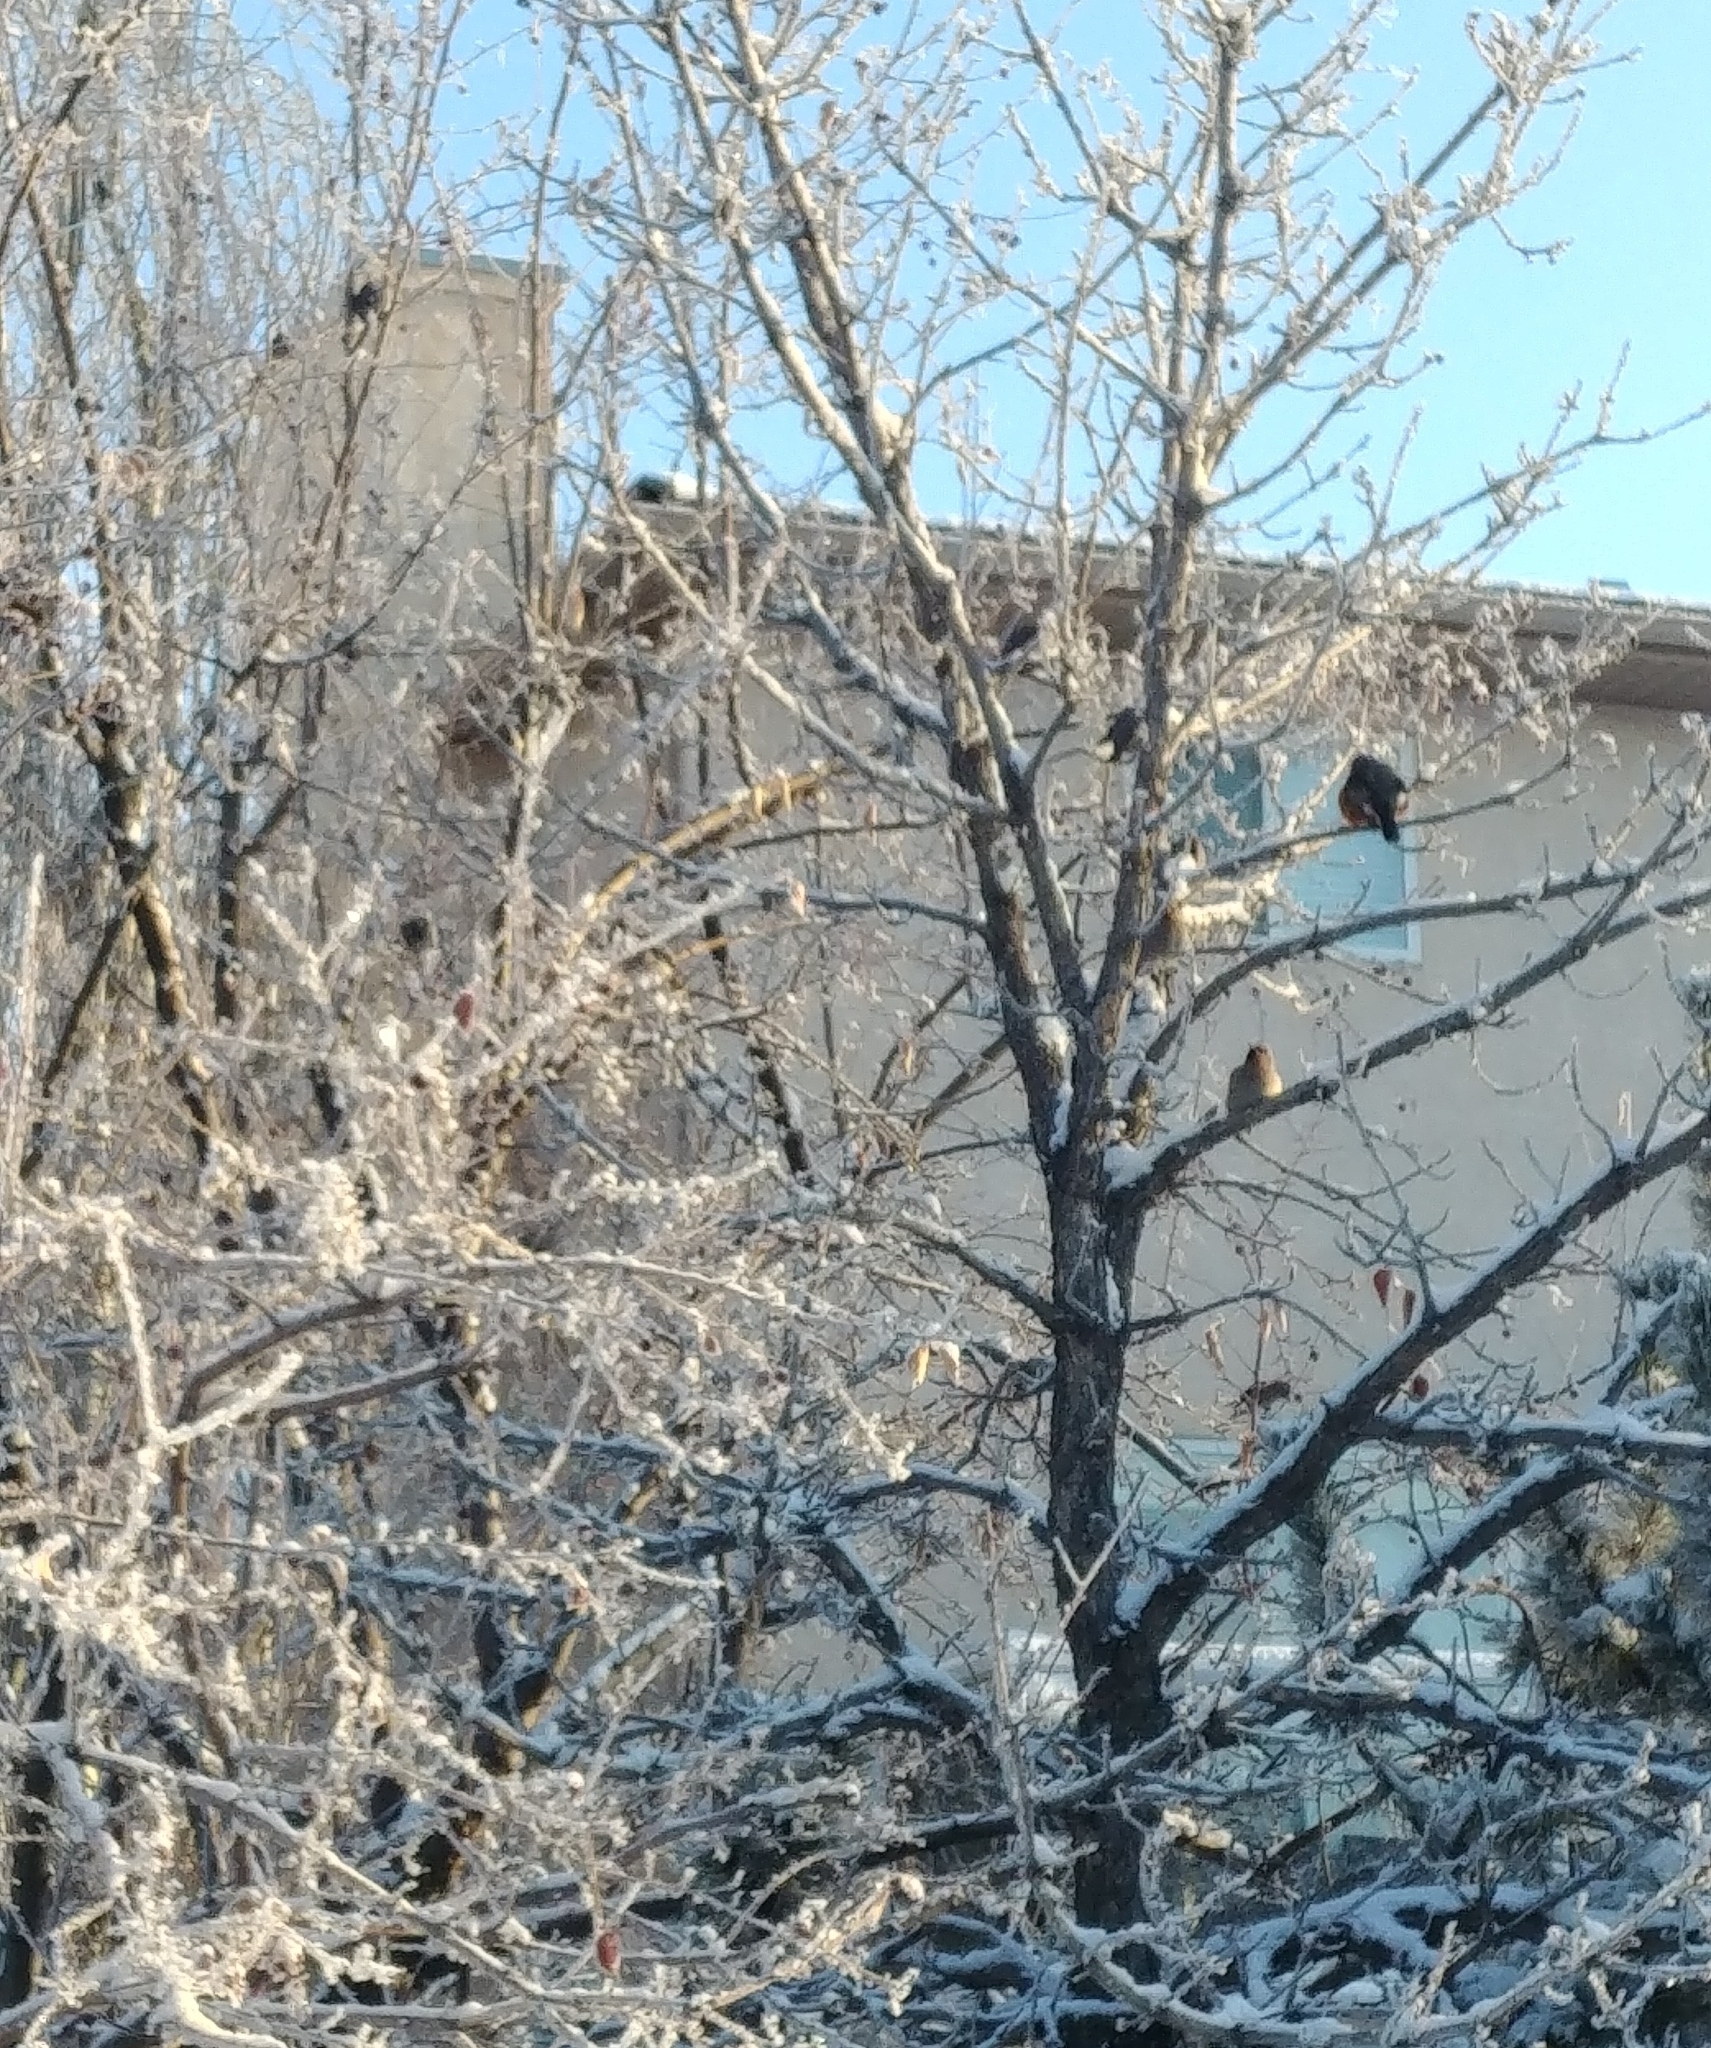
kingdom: Animalia
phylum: Chordata
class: Aves
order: Passeriformes
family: Turdidae
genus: Turdus
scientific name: Turdus migratorius
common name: American robin
